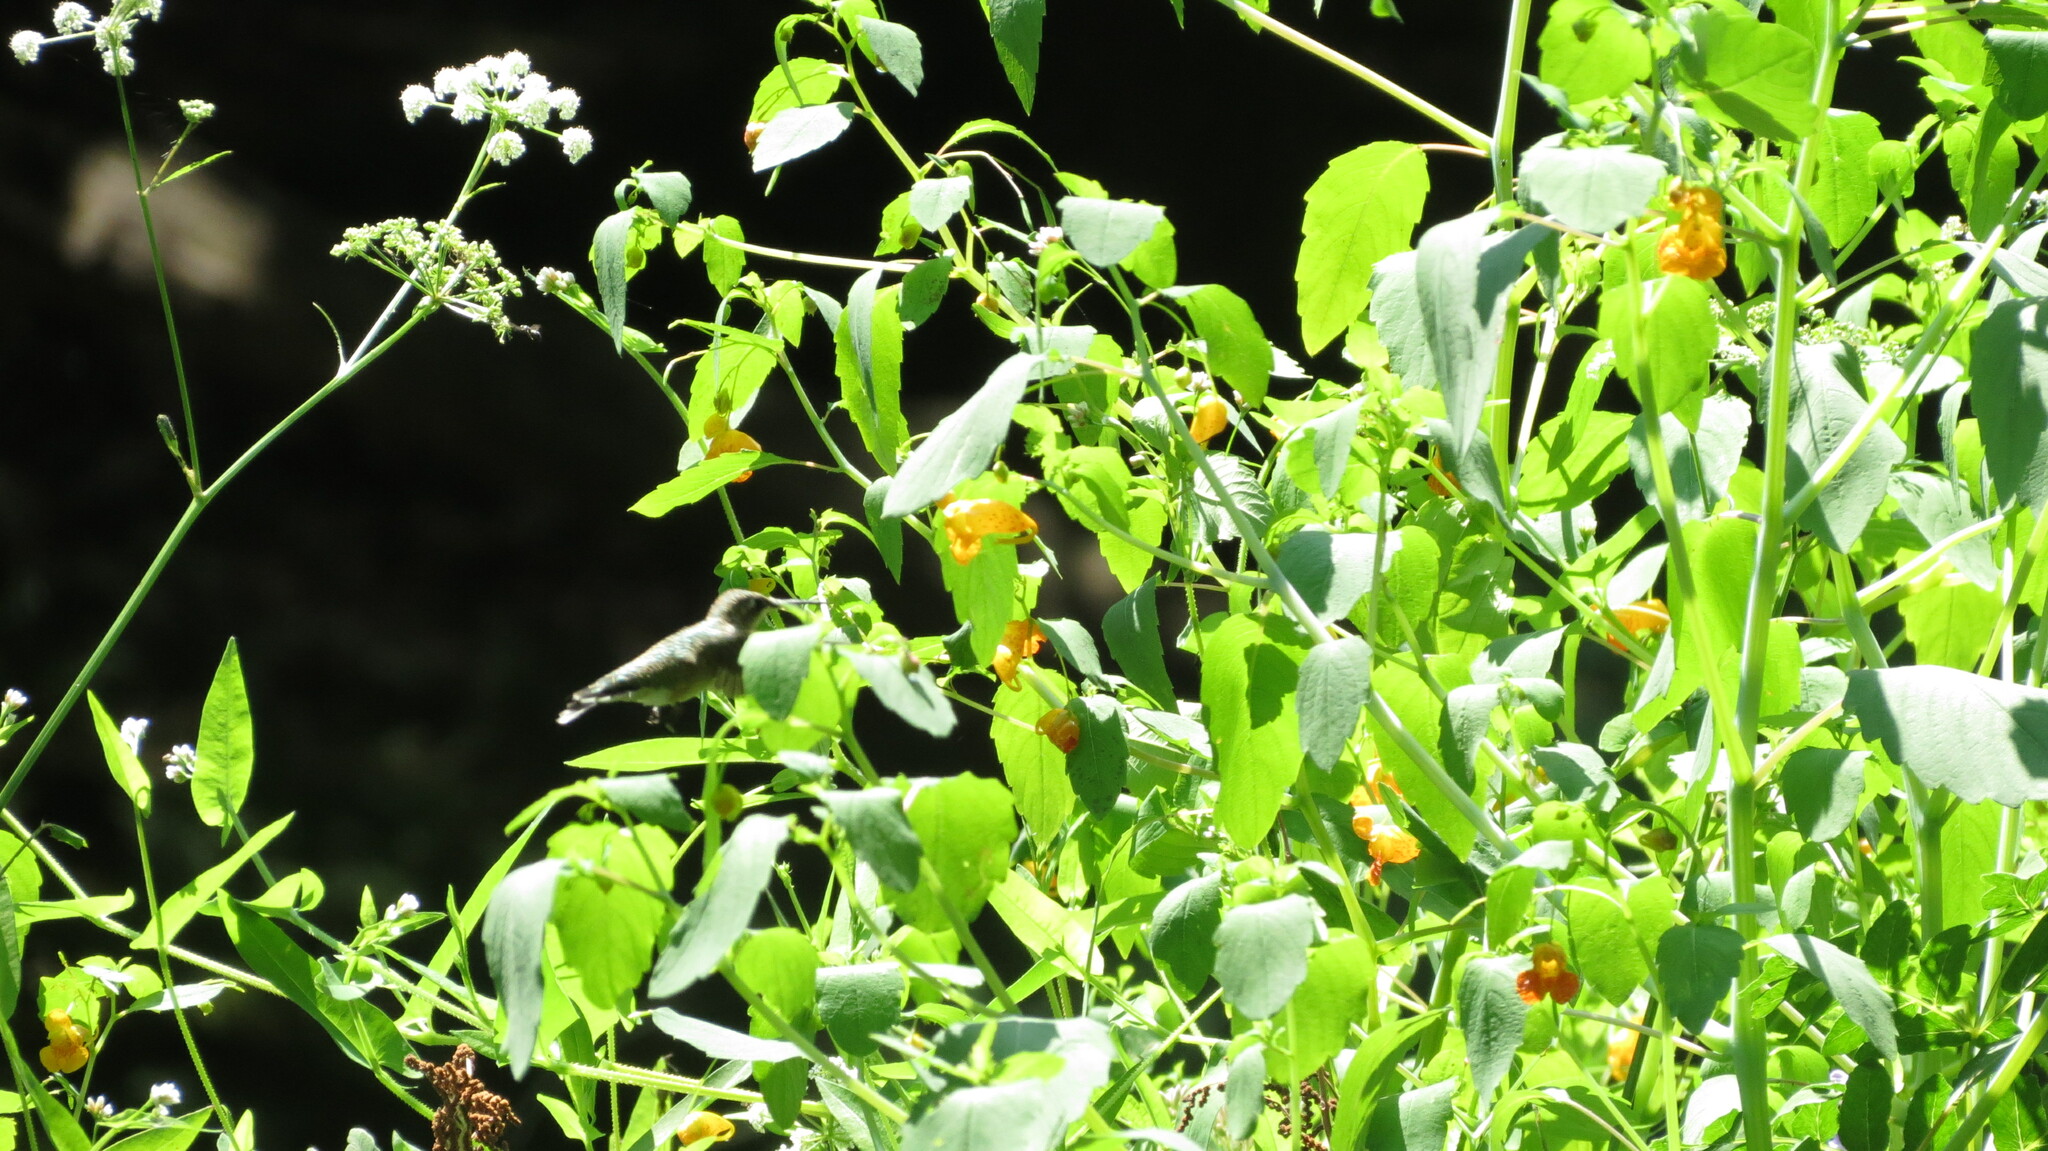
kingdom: Animalia
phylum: Chordata
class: Aves
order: Apodiformes
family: Trochilidae
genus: Archilochus
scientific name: Archilochus colubris
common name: Ruby-throated hummingbird
